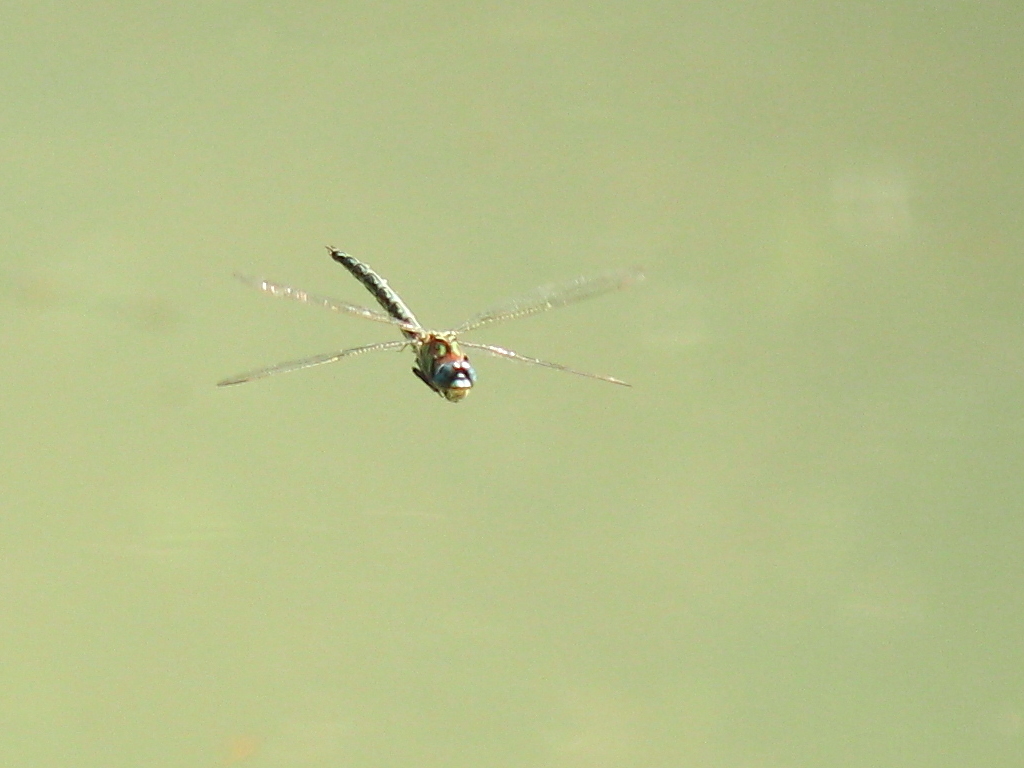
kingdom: Animalia
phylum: Arthropoda
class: Insecta
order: Odonata
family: Aeshnidae
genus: Nasiaeschna
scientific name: Nasiaeschna pentacantha
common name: Cyrano darner
